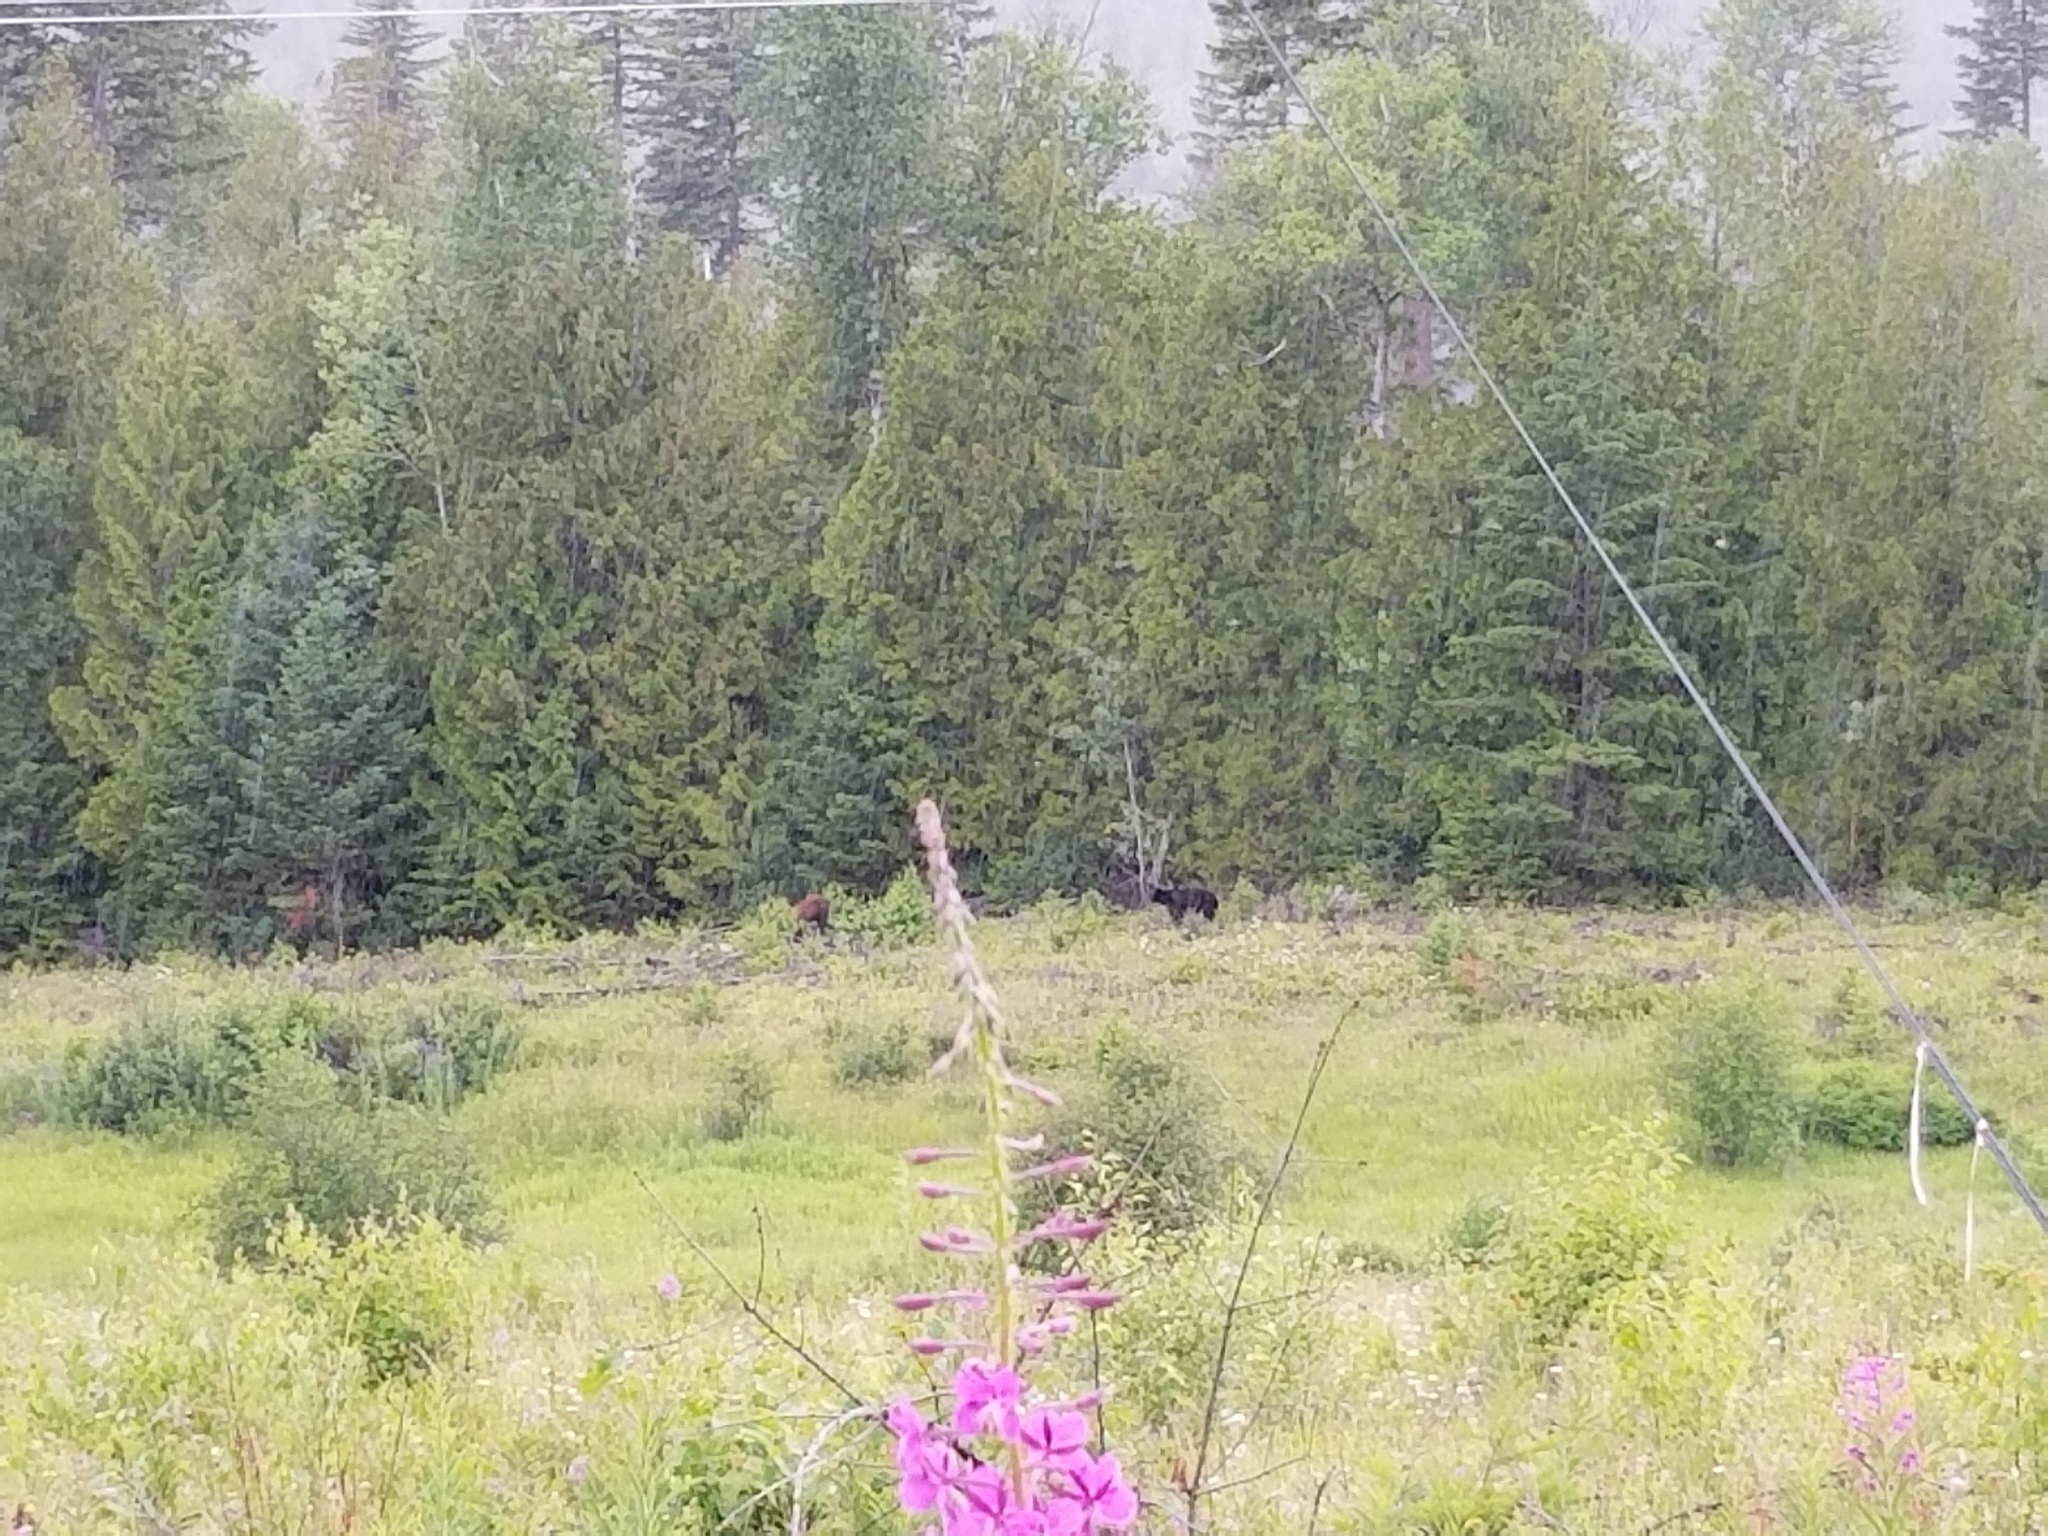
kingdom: Animalia
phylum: Chordata
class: Mammalia
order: Carnivora
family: Ursidae
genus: Ursus
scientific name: Ursus americanus
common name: American black bear
